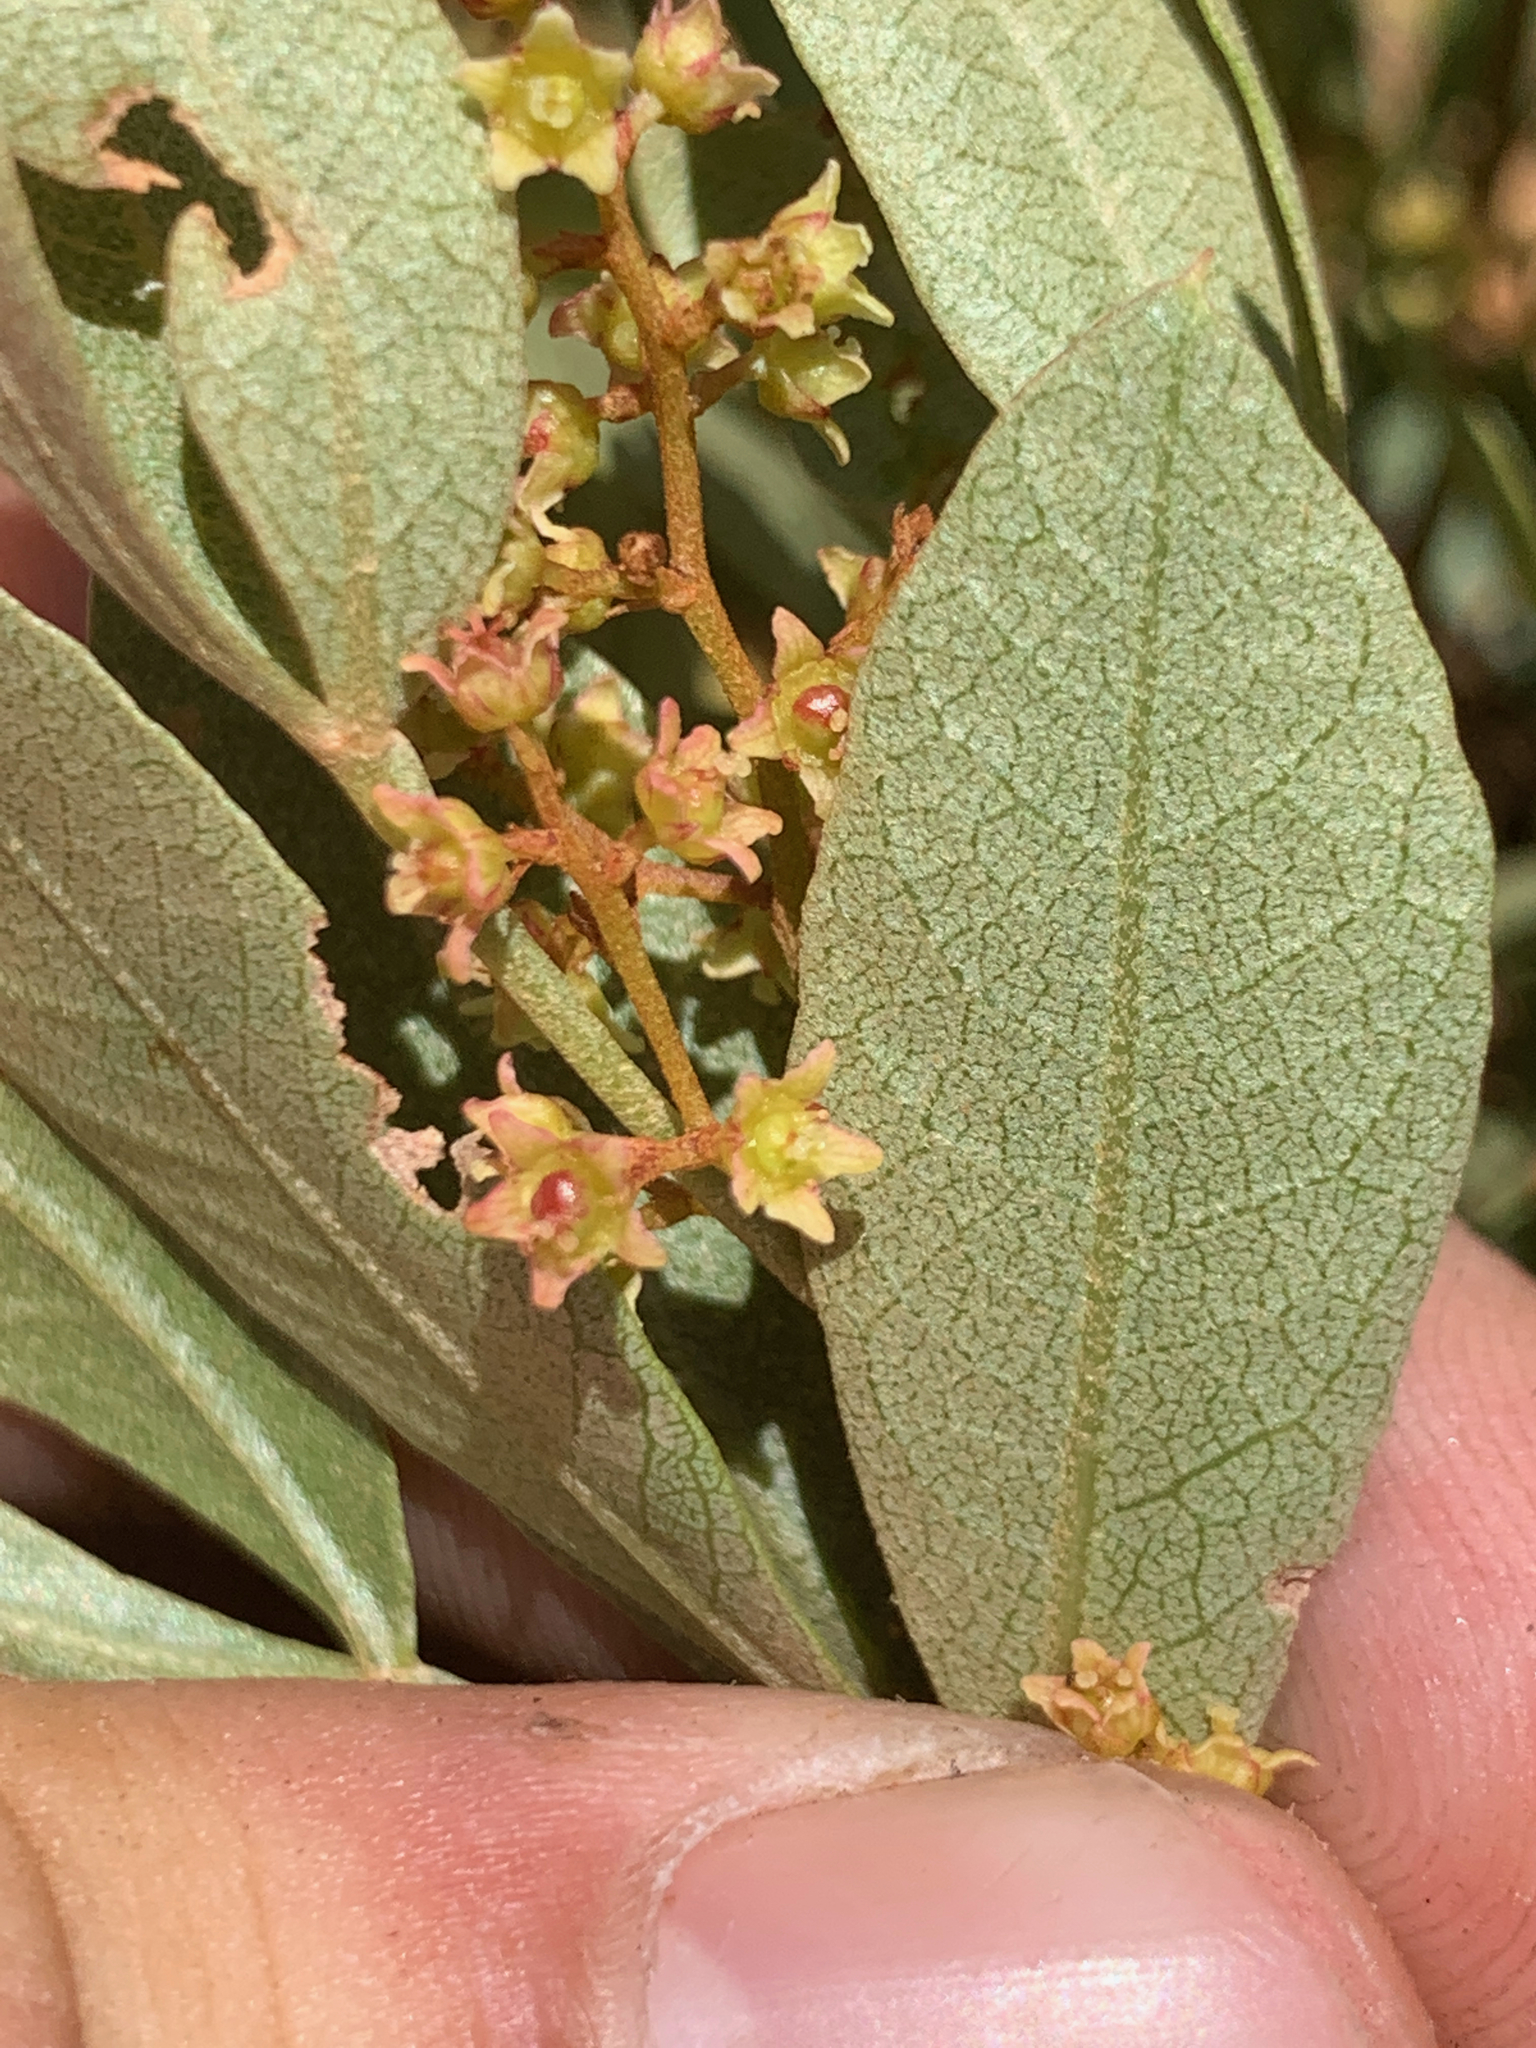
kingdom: Plantae
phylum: Tracheophyta
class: Magnoliopsida
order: Sapindales
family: Anacardiaceae
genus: Searsia
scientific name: Searsia magalismontana
